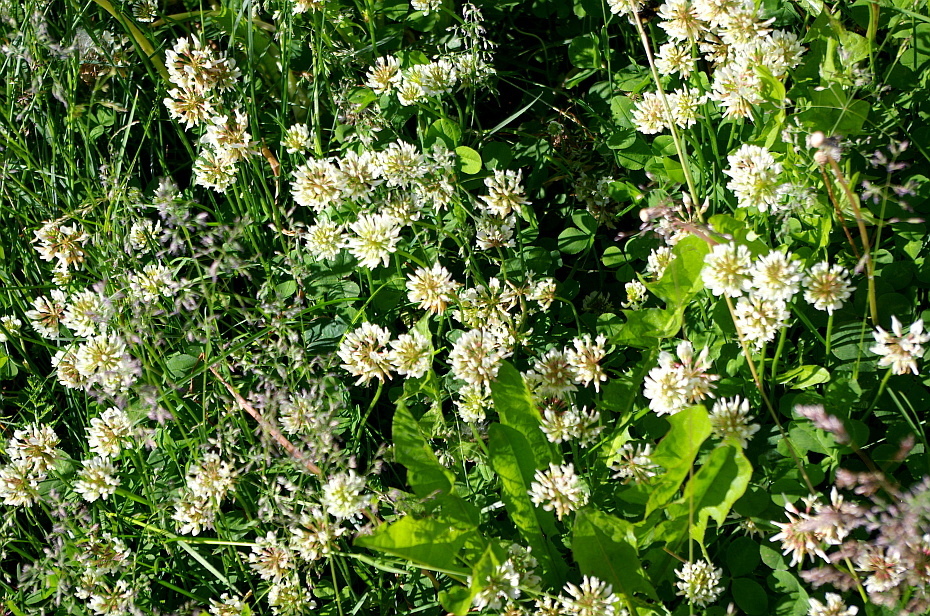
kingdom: Plantae
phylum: Tracheophyta
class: Magnoliopsida
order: Fabales
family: Fabaceae
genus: Trifolium
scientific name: Trifolium repens
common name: White clover
